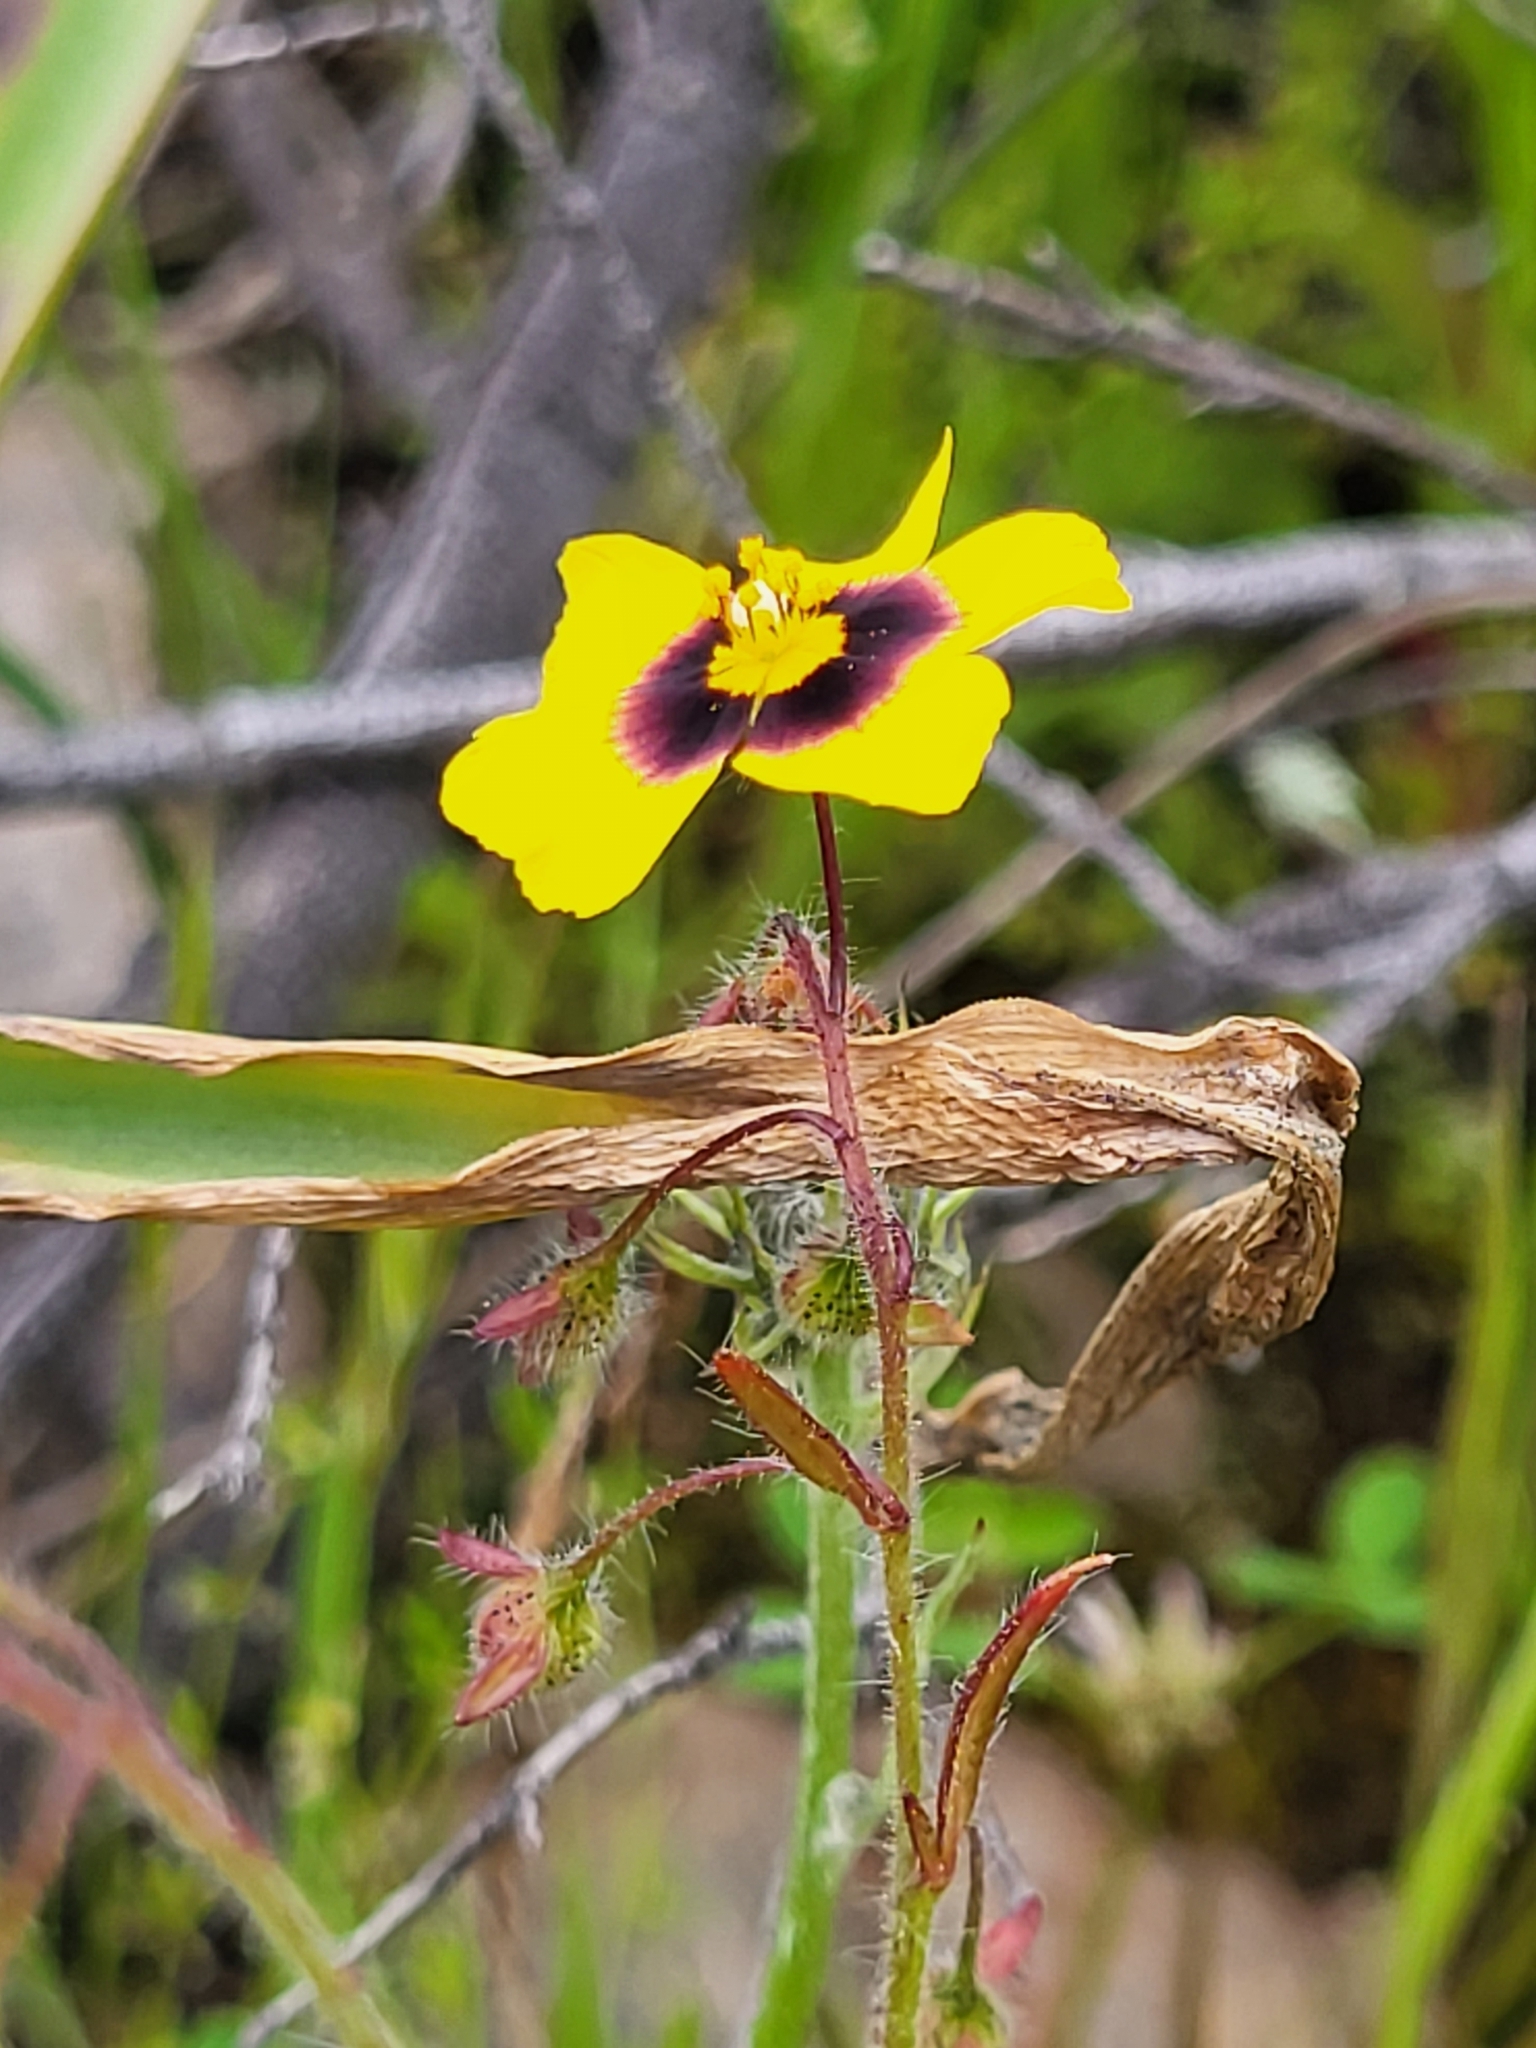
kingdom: Plantae
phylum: Tracheophyta
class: Magnoliopsida
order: Malvales
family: Cistaceae
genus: Tuberaria
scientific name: Tuberaria guttata
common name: Spotted rock-rose
